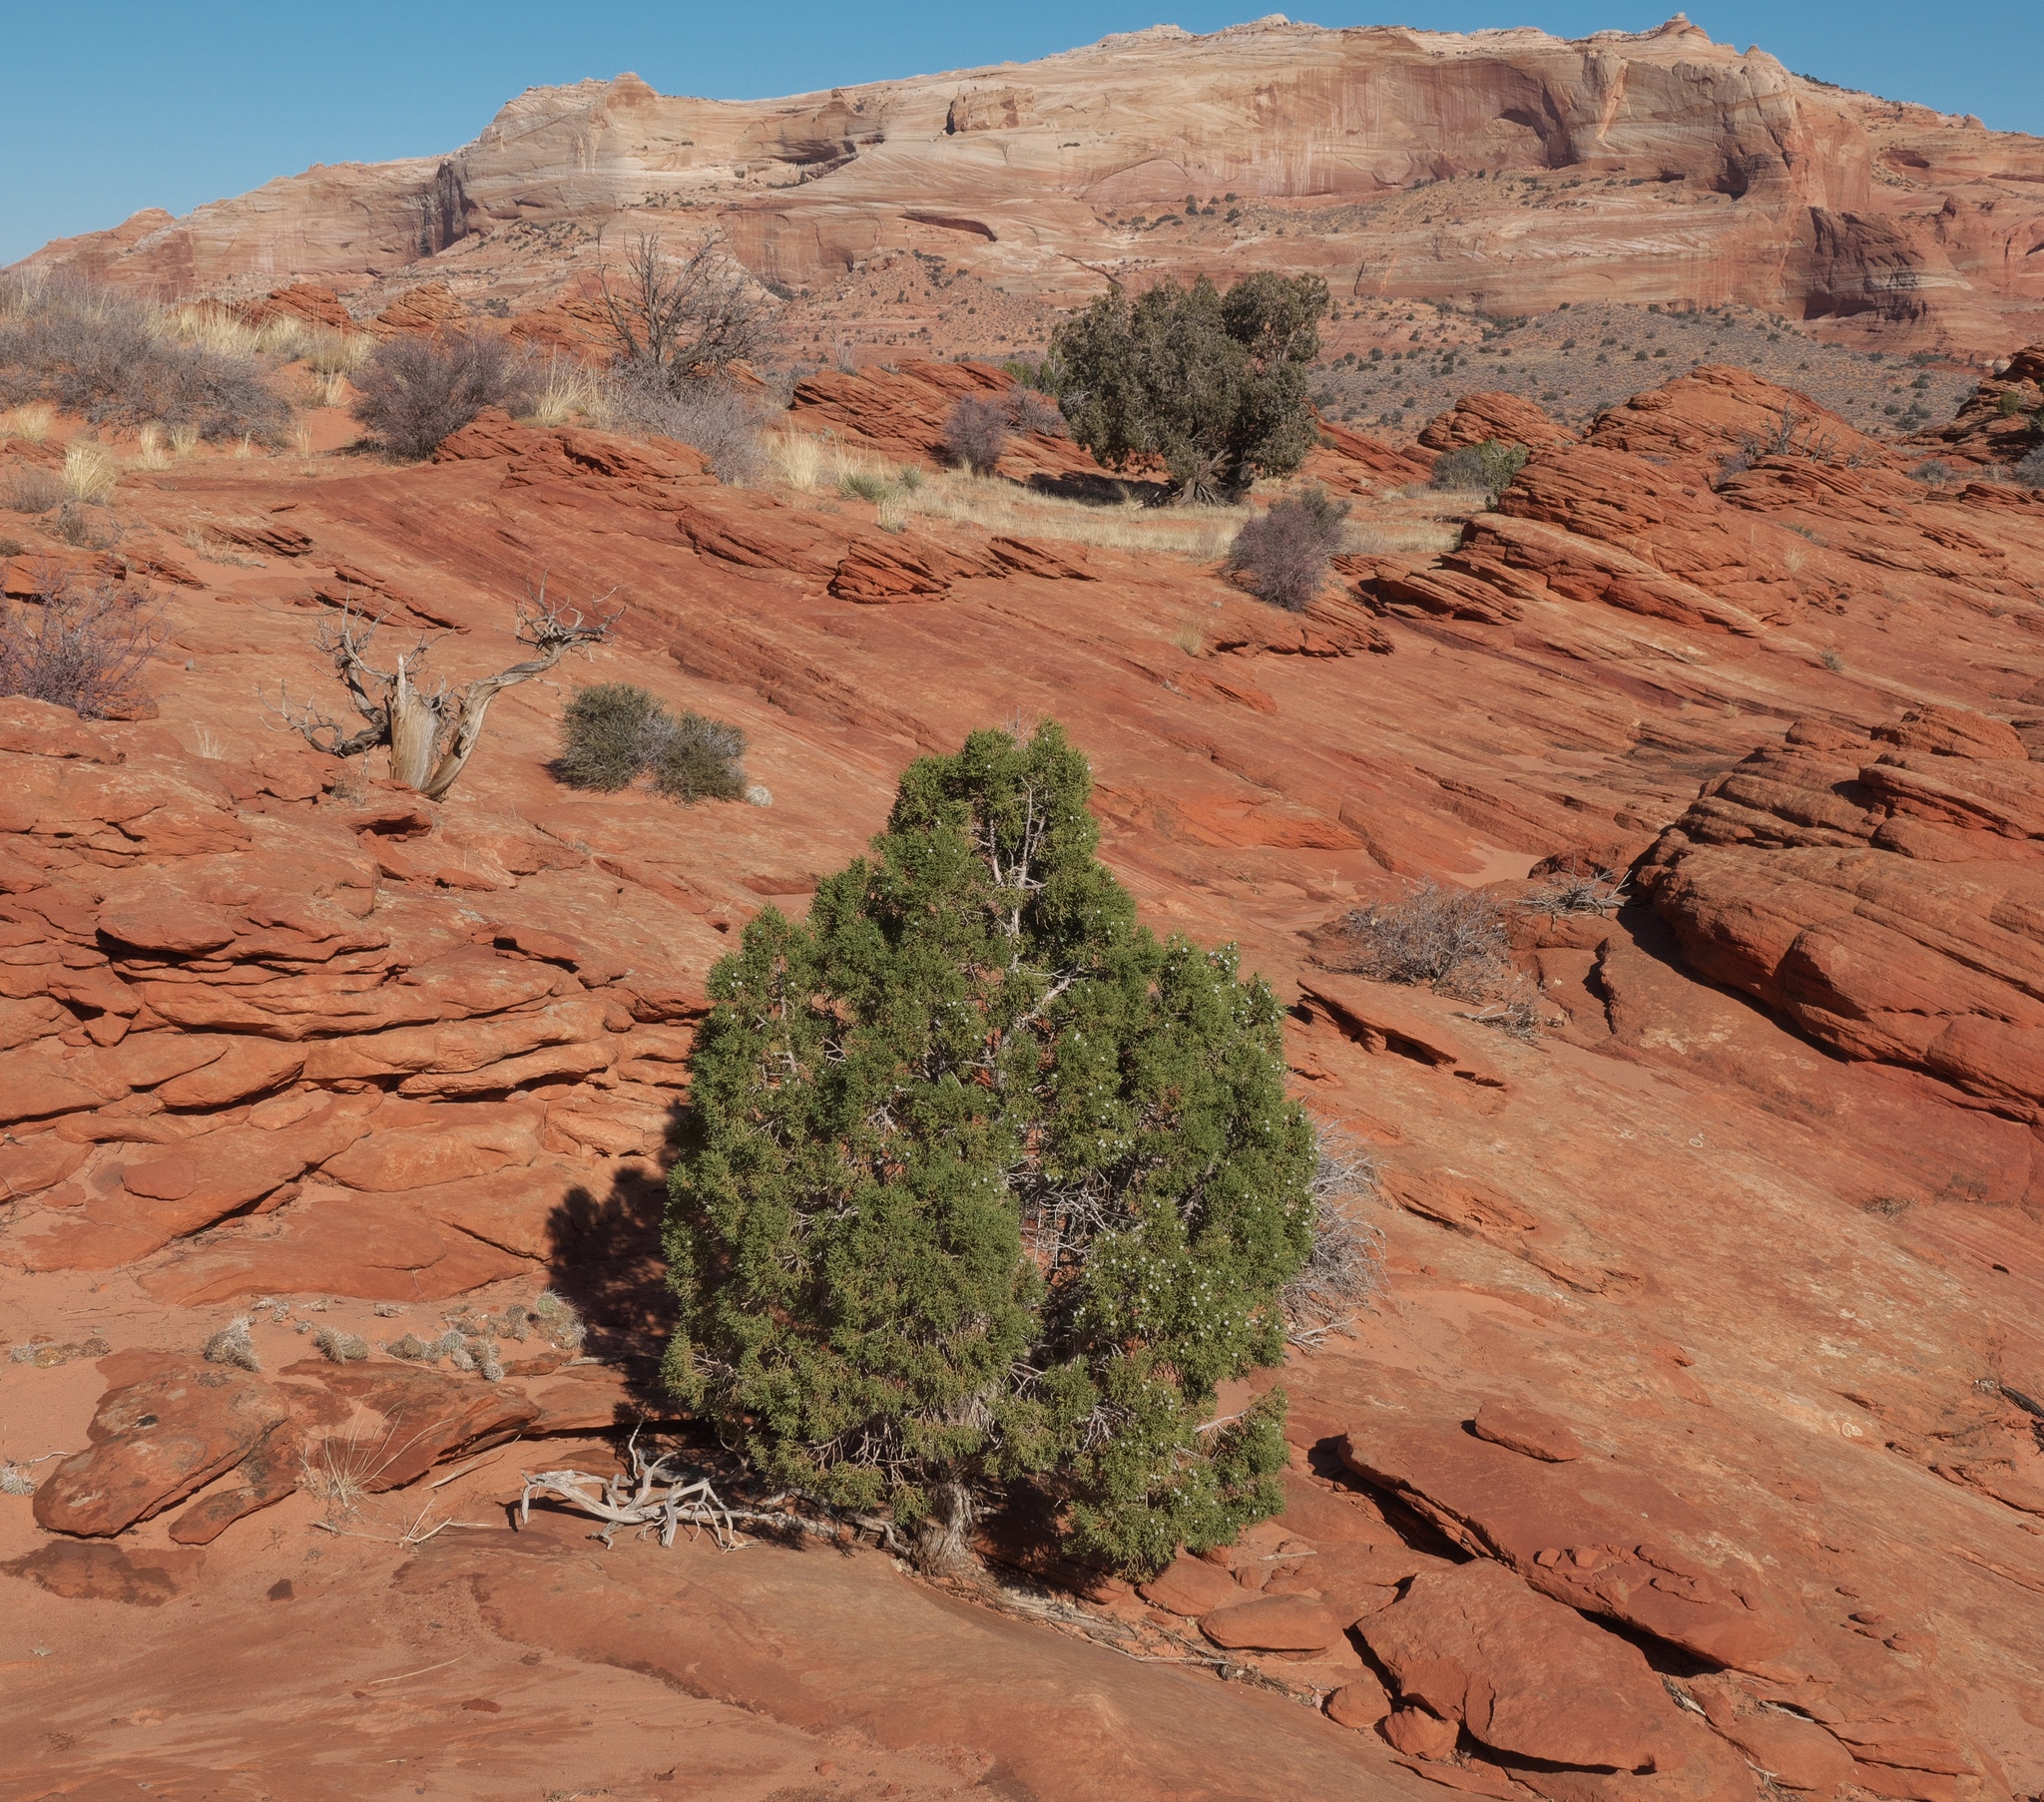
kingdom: Plantae
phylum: Tracheophyta
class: Pinopsida
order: Pinales
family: Cupressaceae
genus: Juniperus
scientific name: Juniperus osteosperma
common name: Utah juniper
